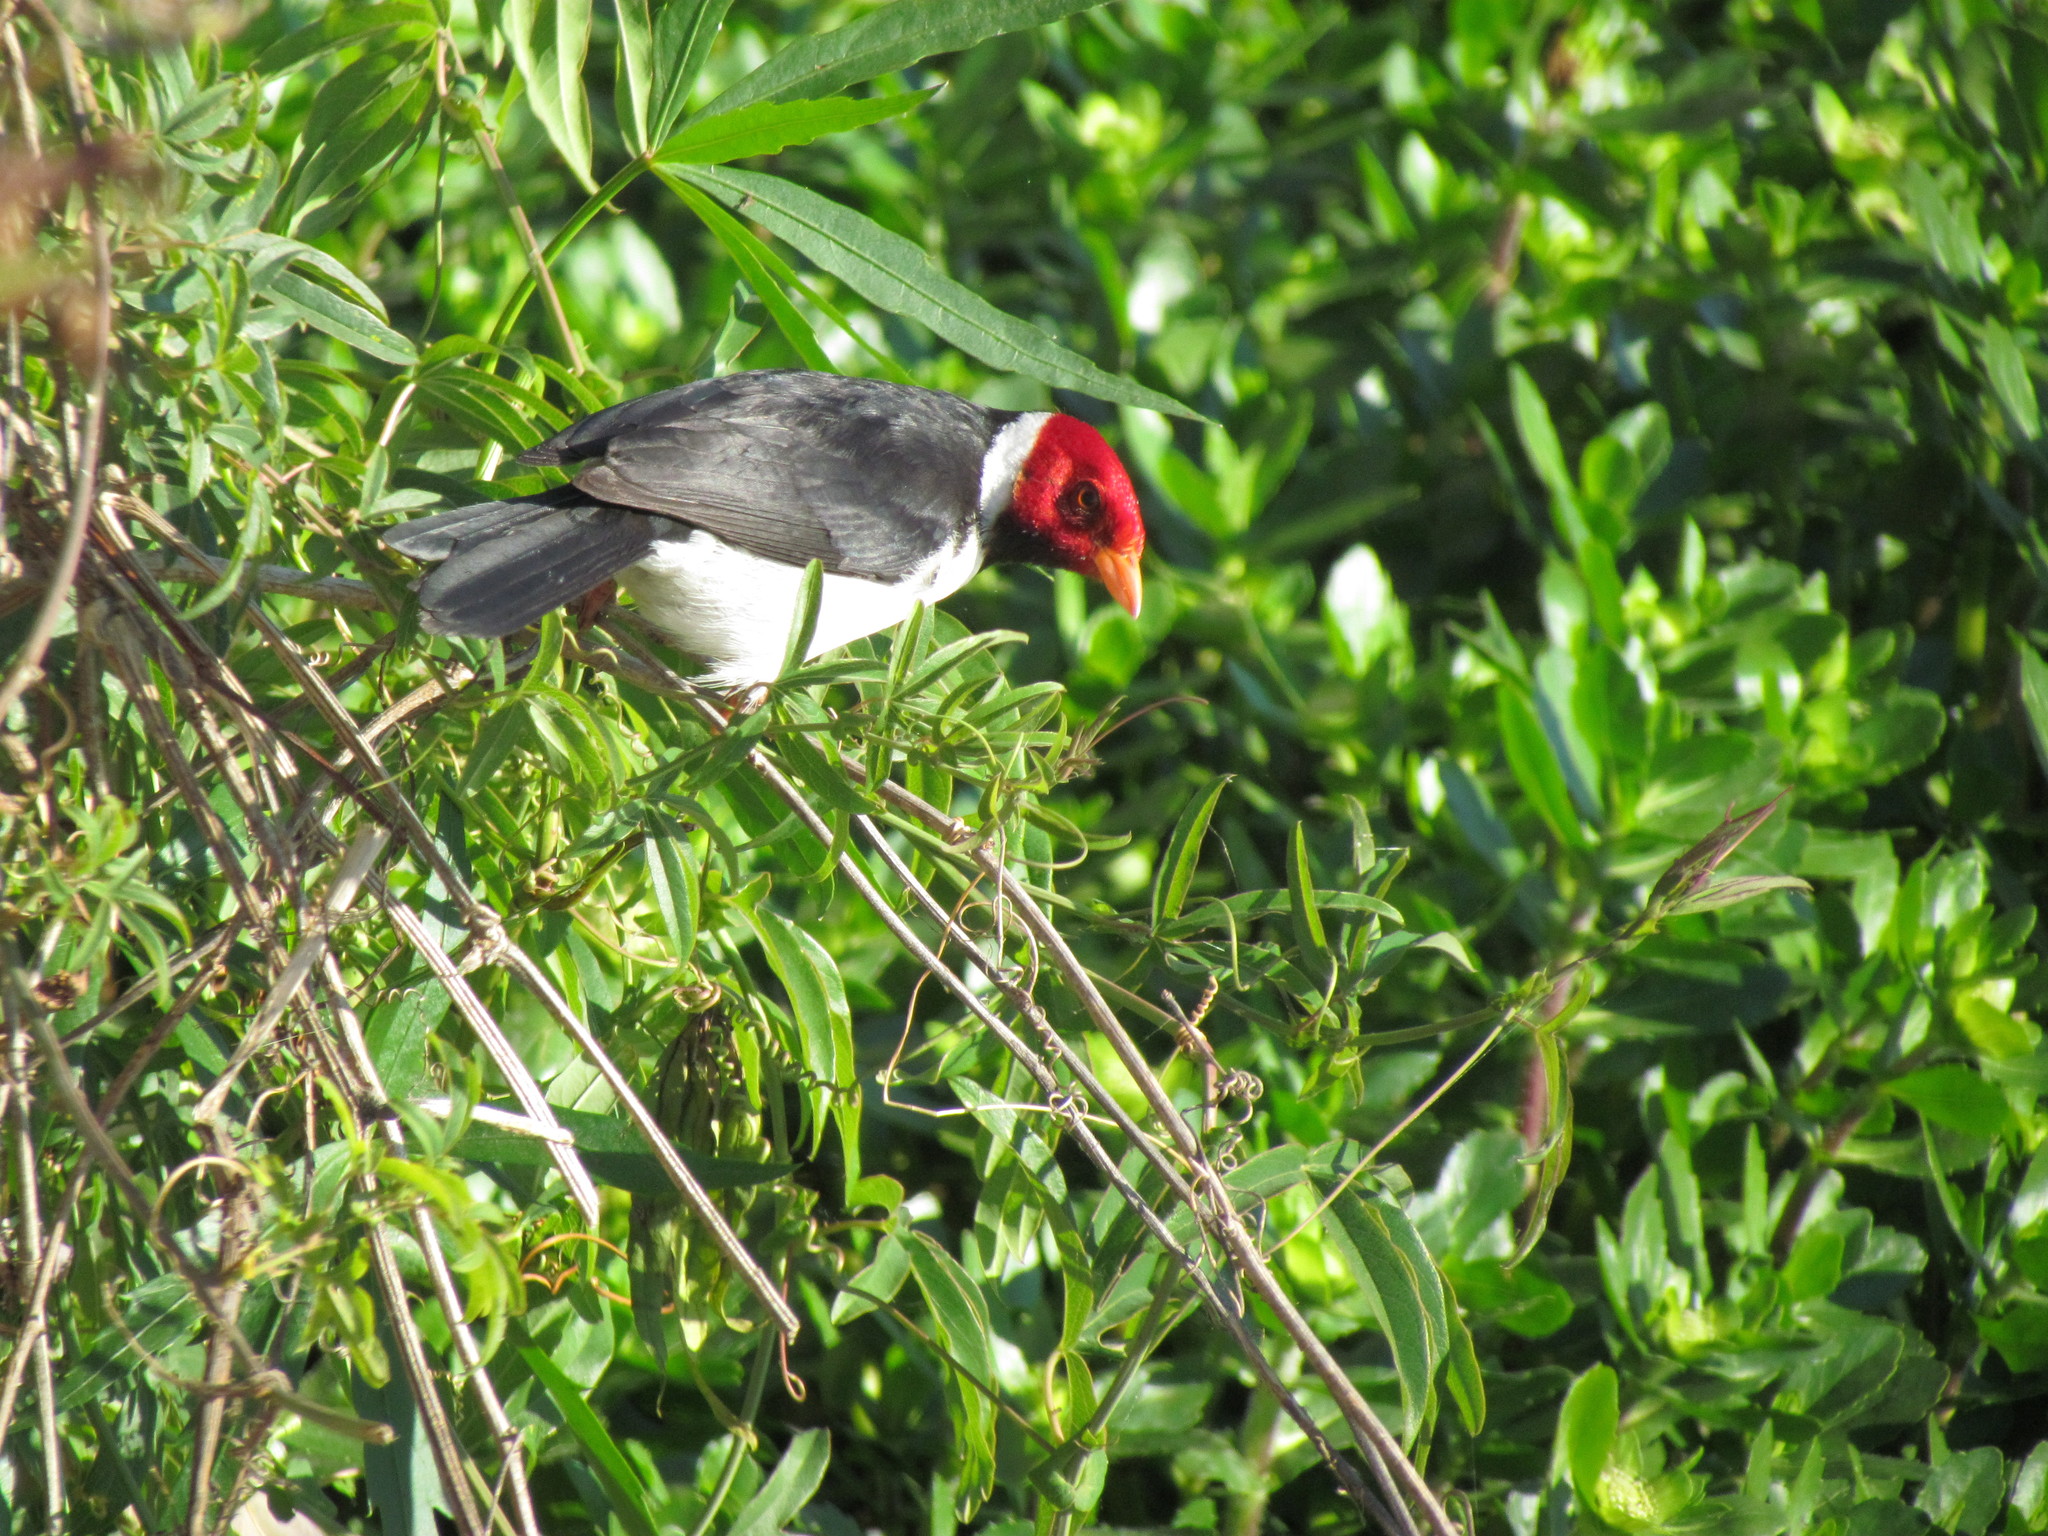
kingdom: Animalia
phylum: Chordata
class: Aves
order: Passeriformes
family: Thraupidae
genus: Paroaria
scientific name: Paroaria capitata
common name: Yellow-billed cardinal
